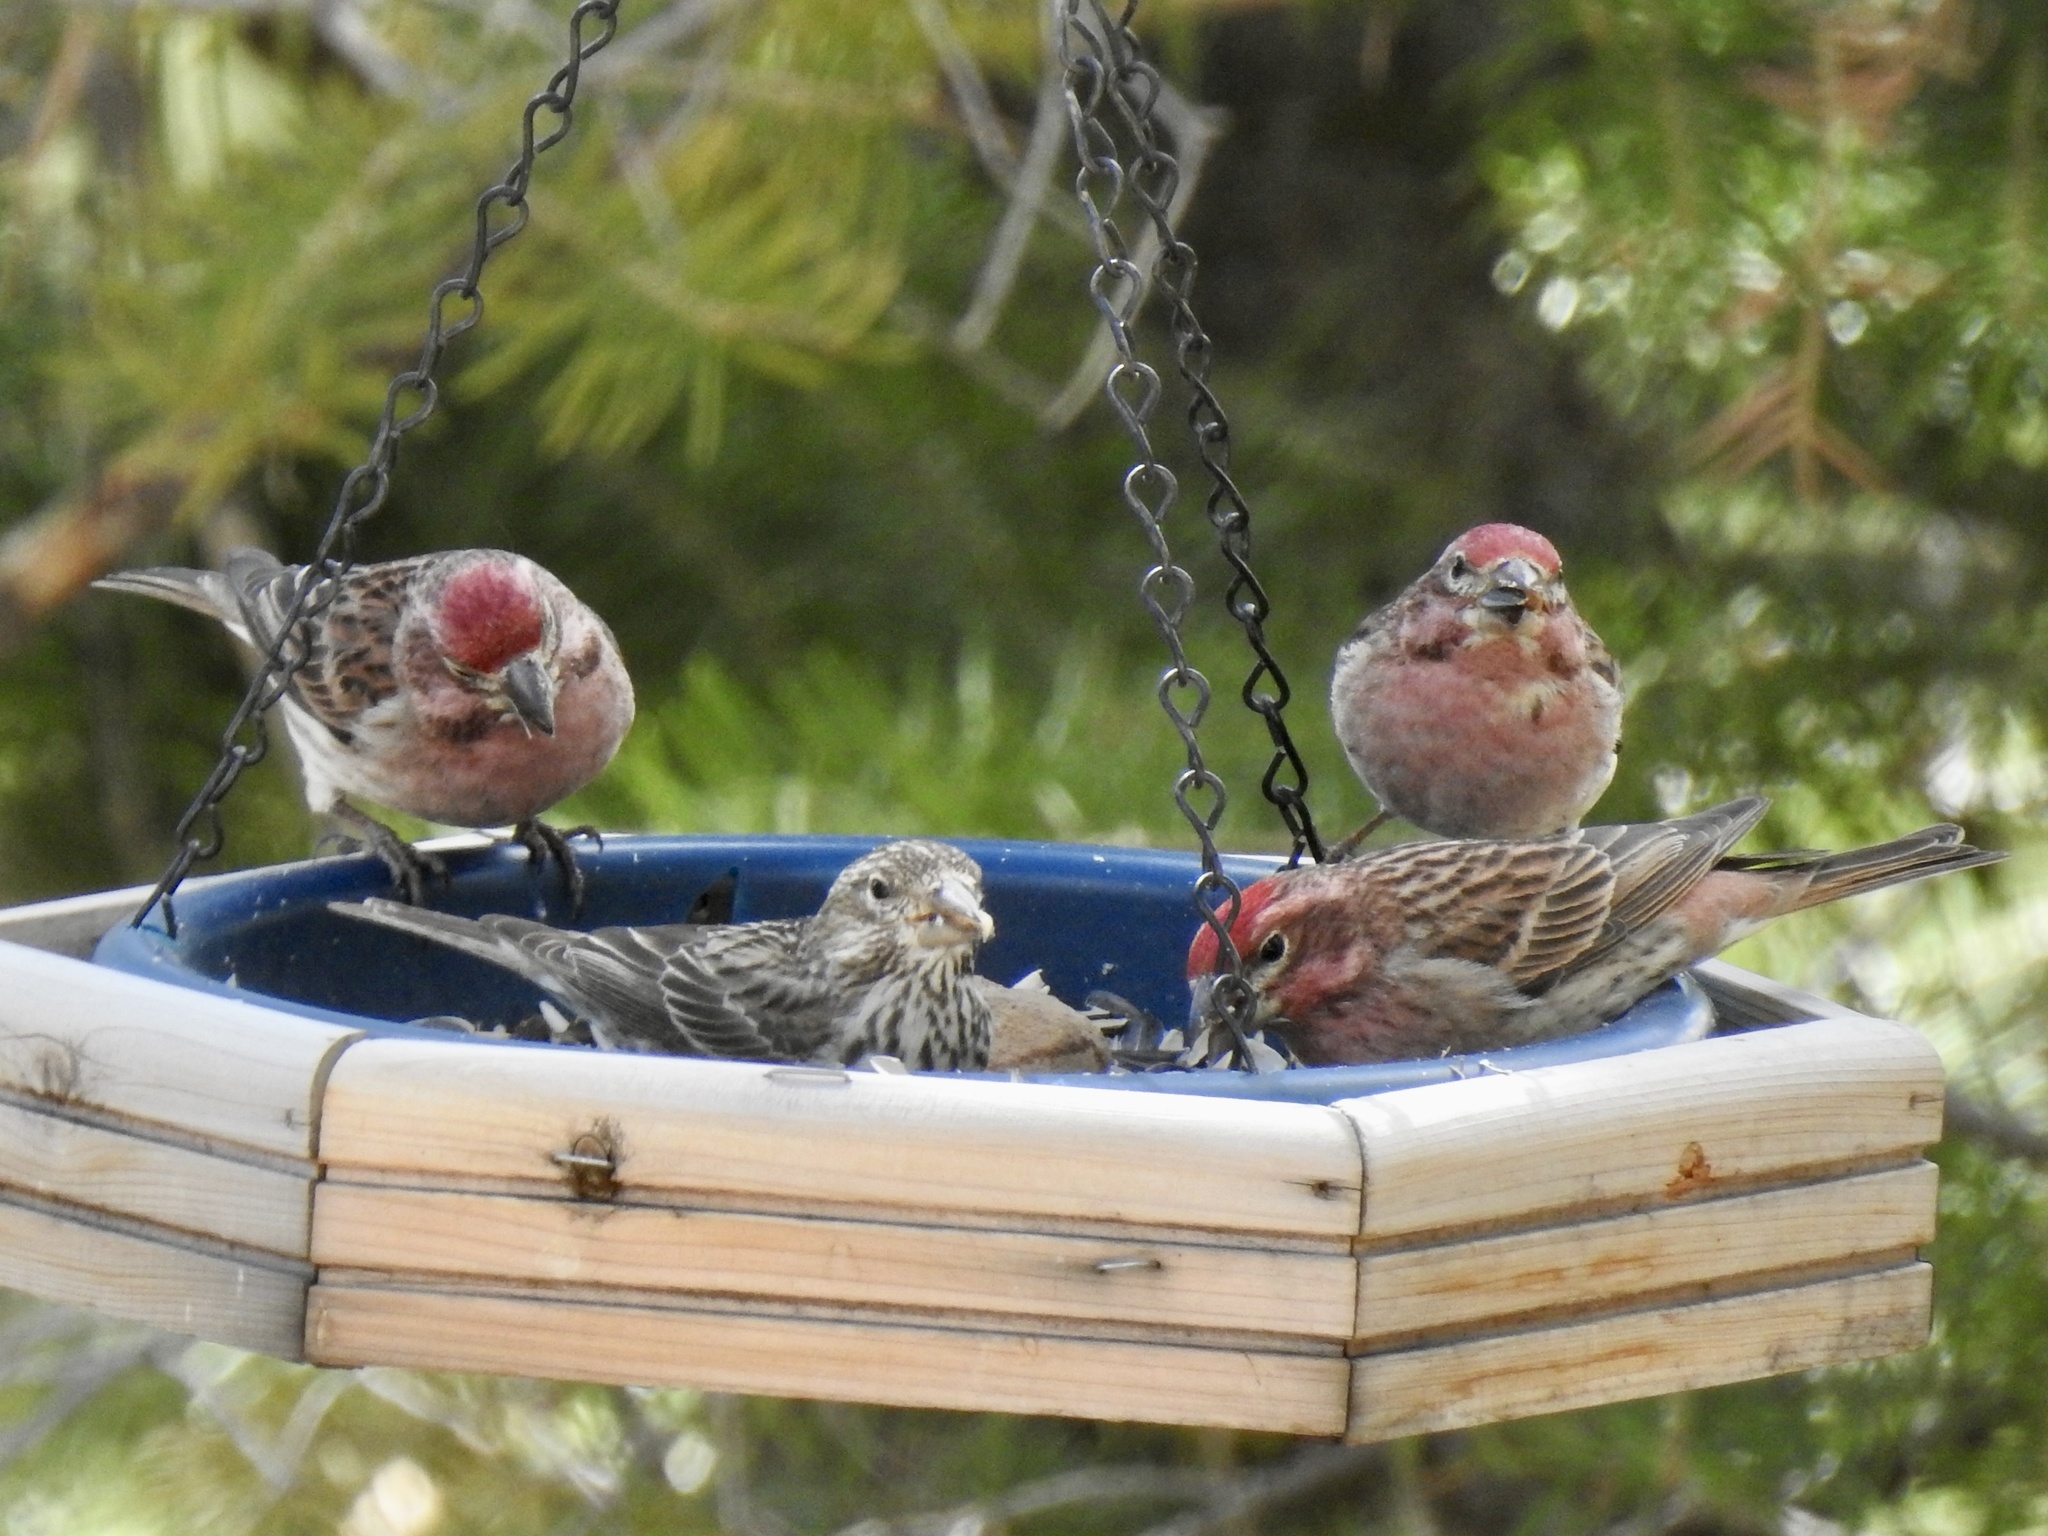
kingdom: Animalia
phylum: Chordata
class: Aves
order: Passeriformes
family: Fringillidae
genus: Haemorhous
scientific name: Haemorhous cassinii
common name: Cassin's finch
